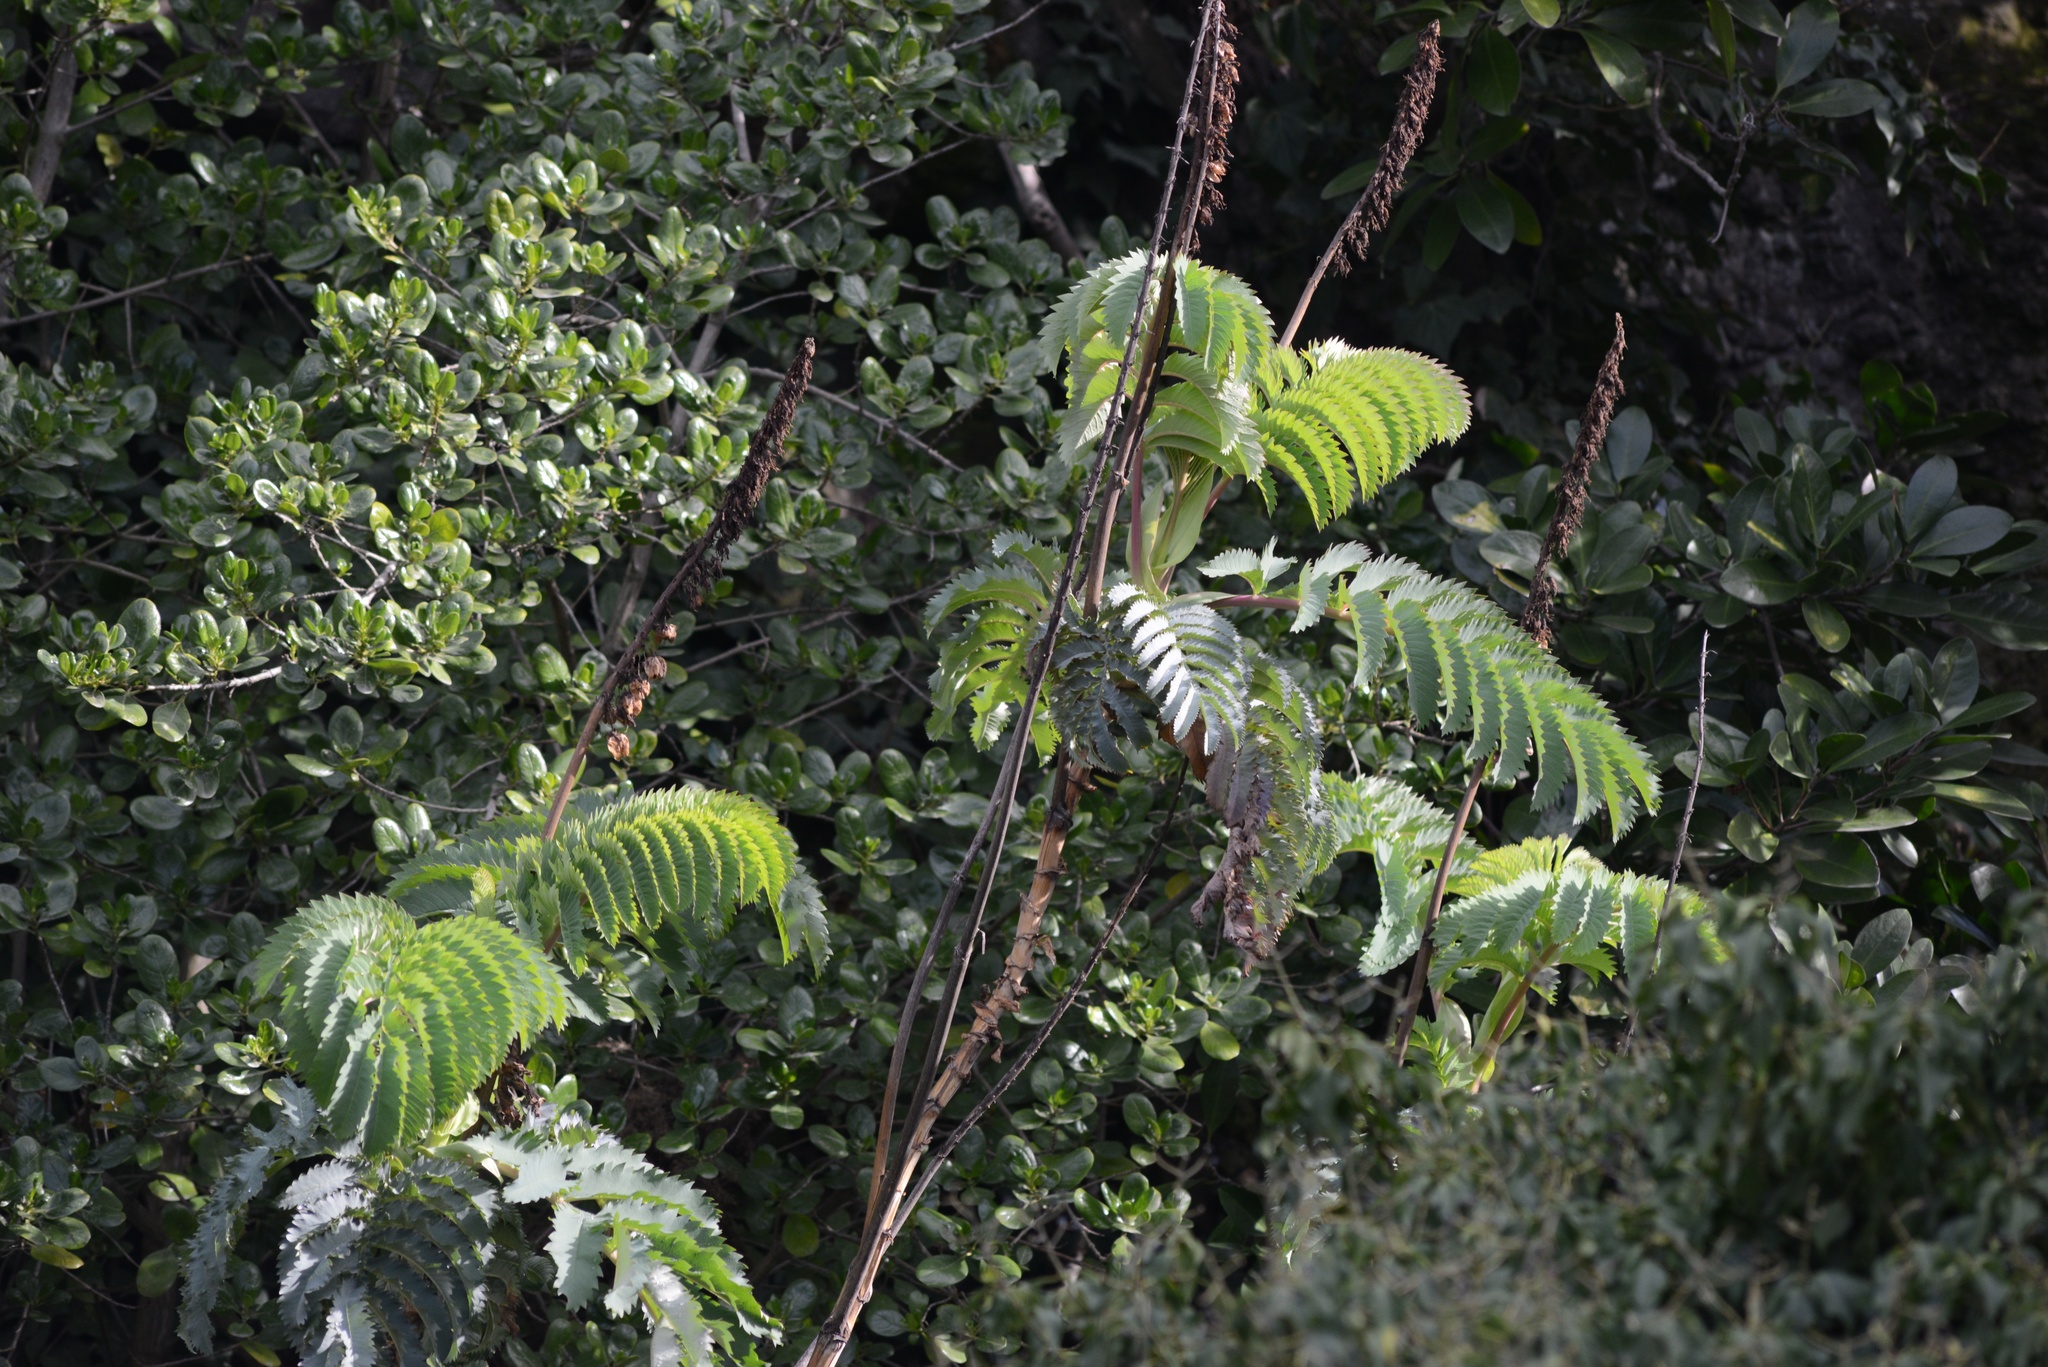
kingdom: Plantae
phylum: Tracheophyta
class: Magnoliopsida
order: Geraniales
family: Melianthaceae
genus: Melianthus
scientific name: Melianthus major
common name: Honey-flower
